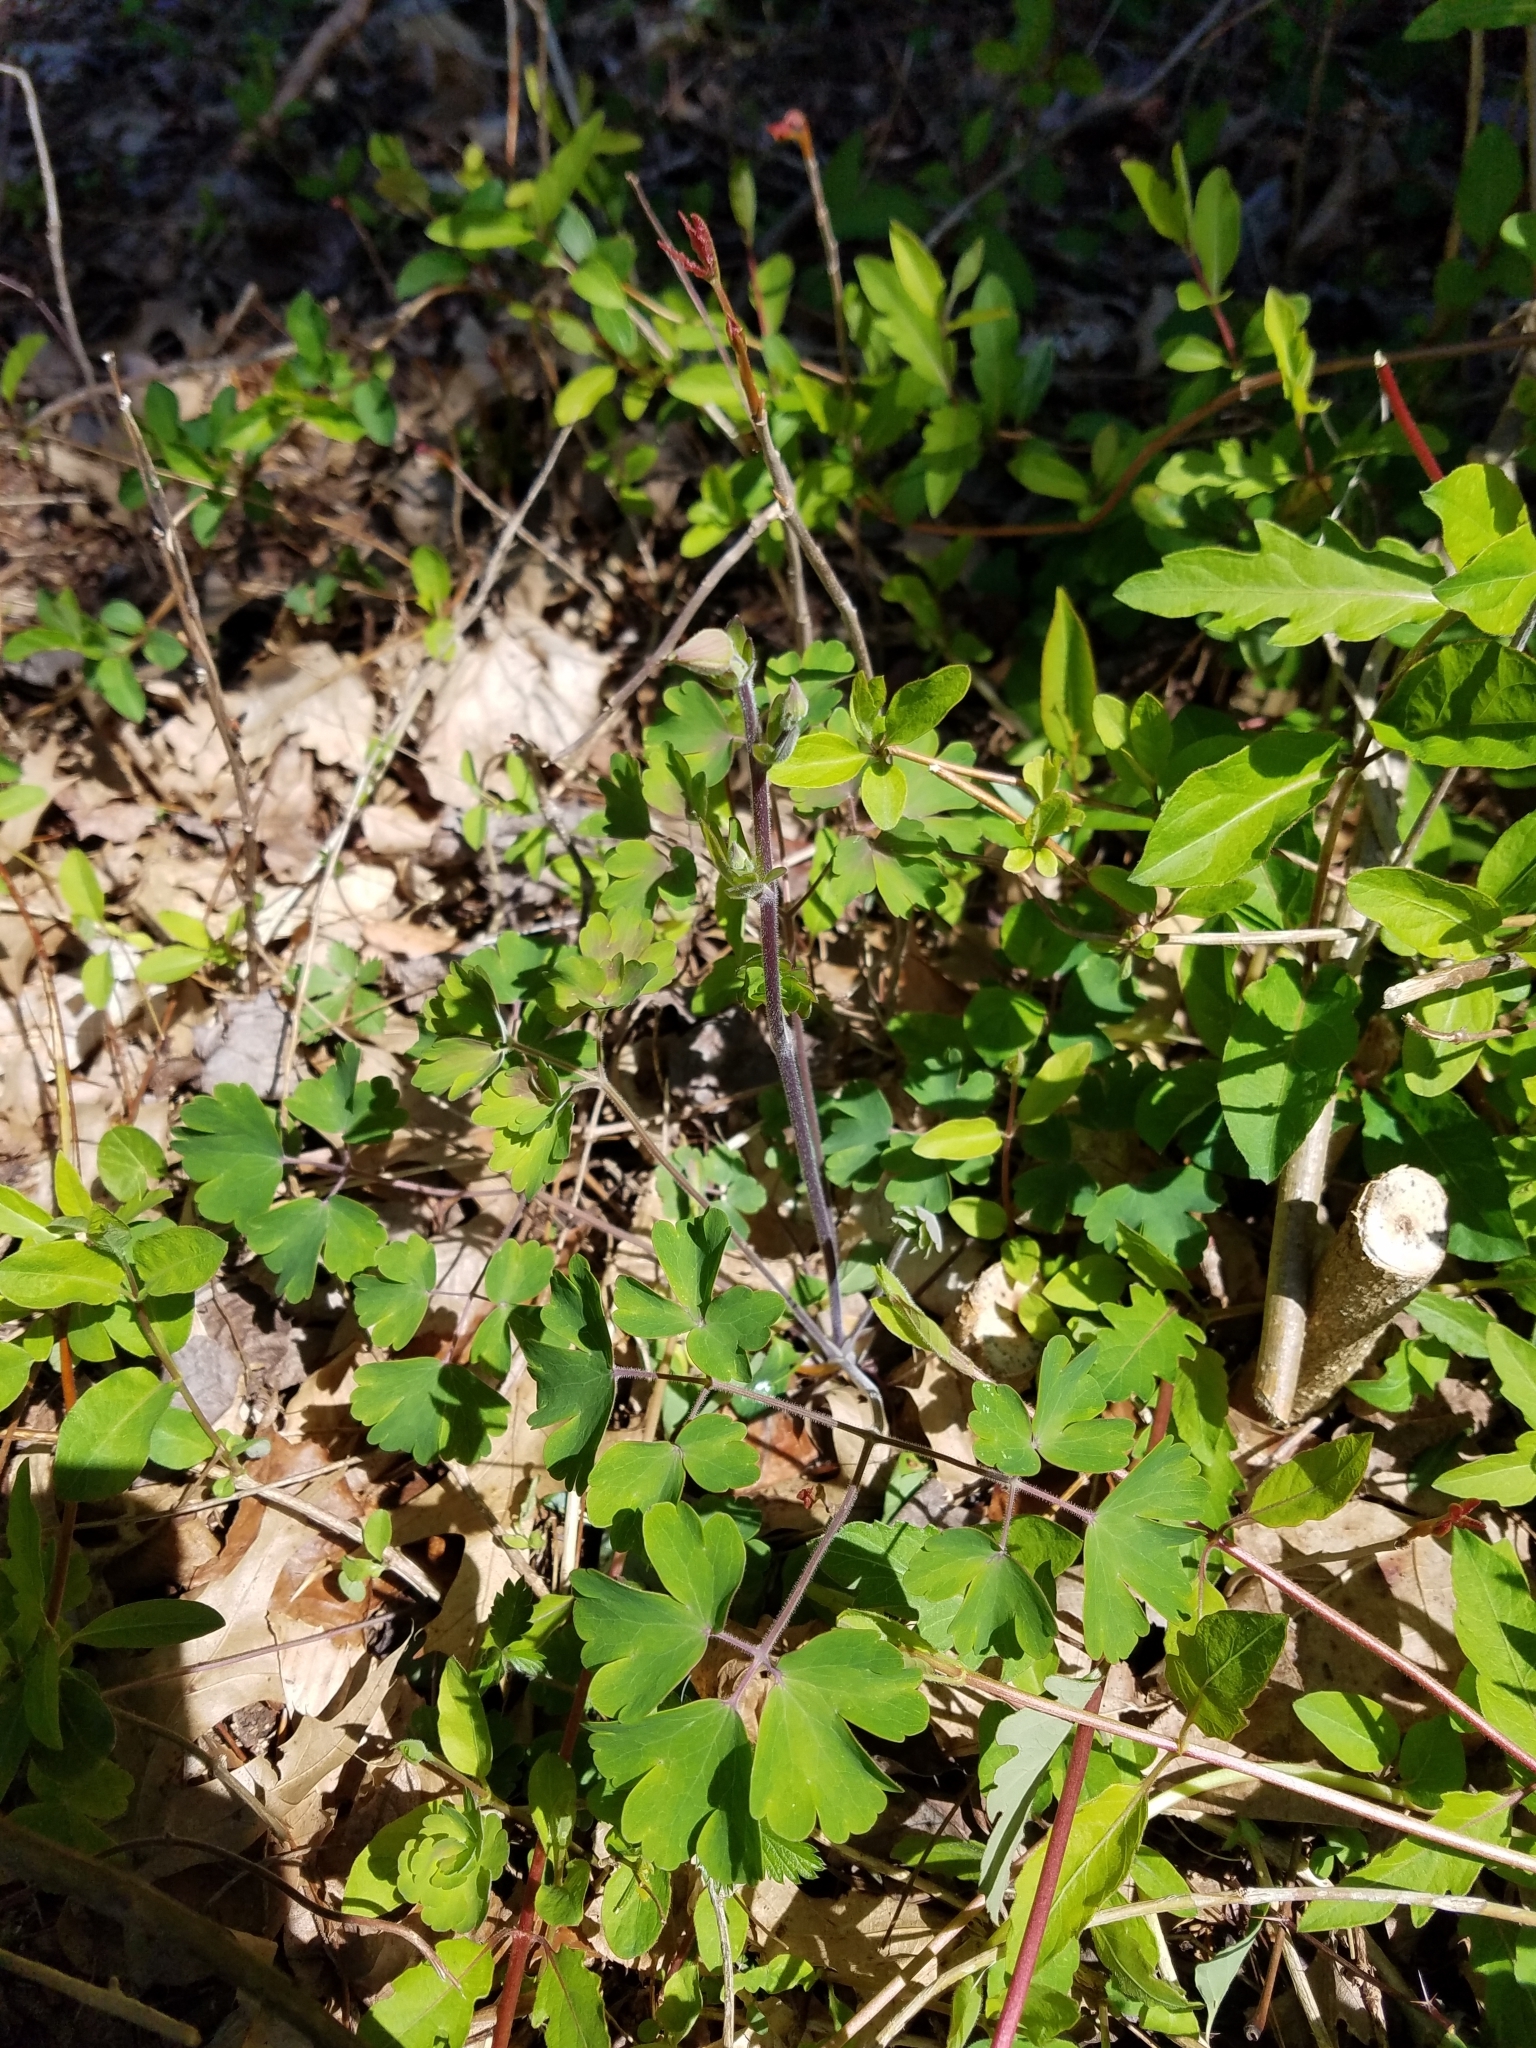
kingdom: Plantae
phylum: Tracheophyta
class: Magnoliopsida
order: Ranunculales
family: Ranunculaceae
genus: Aquilegia
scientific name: Aquilegia canadensis
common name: American columbine
